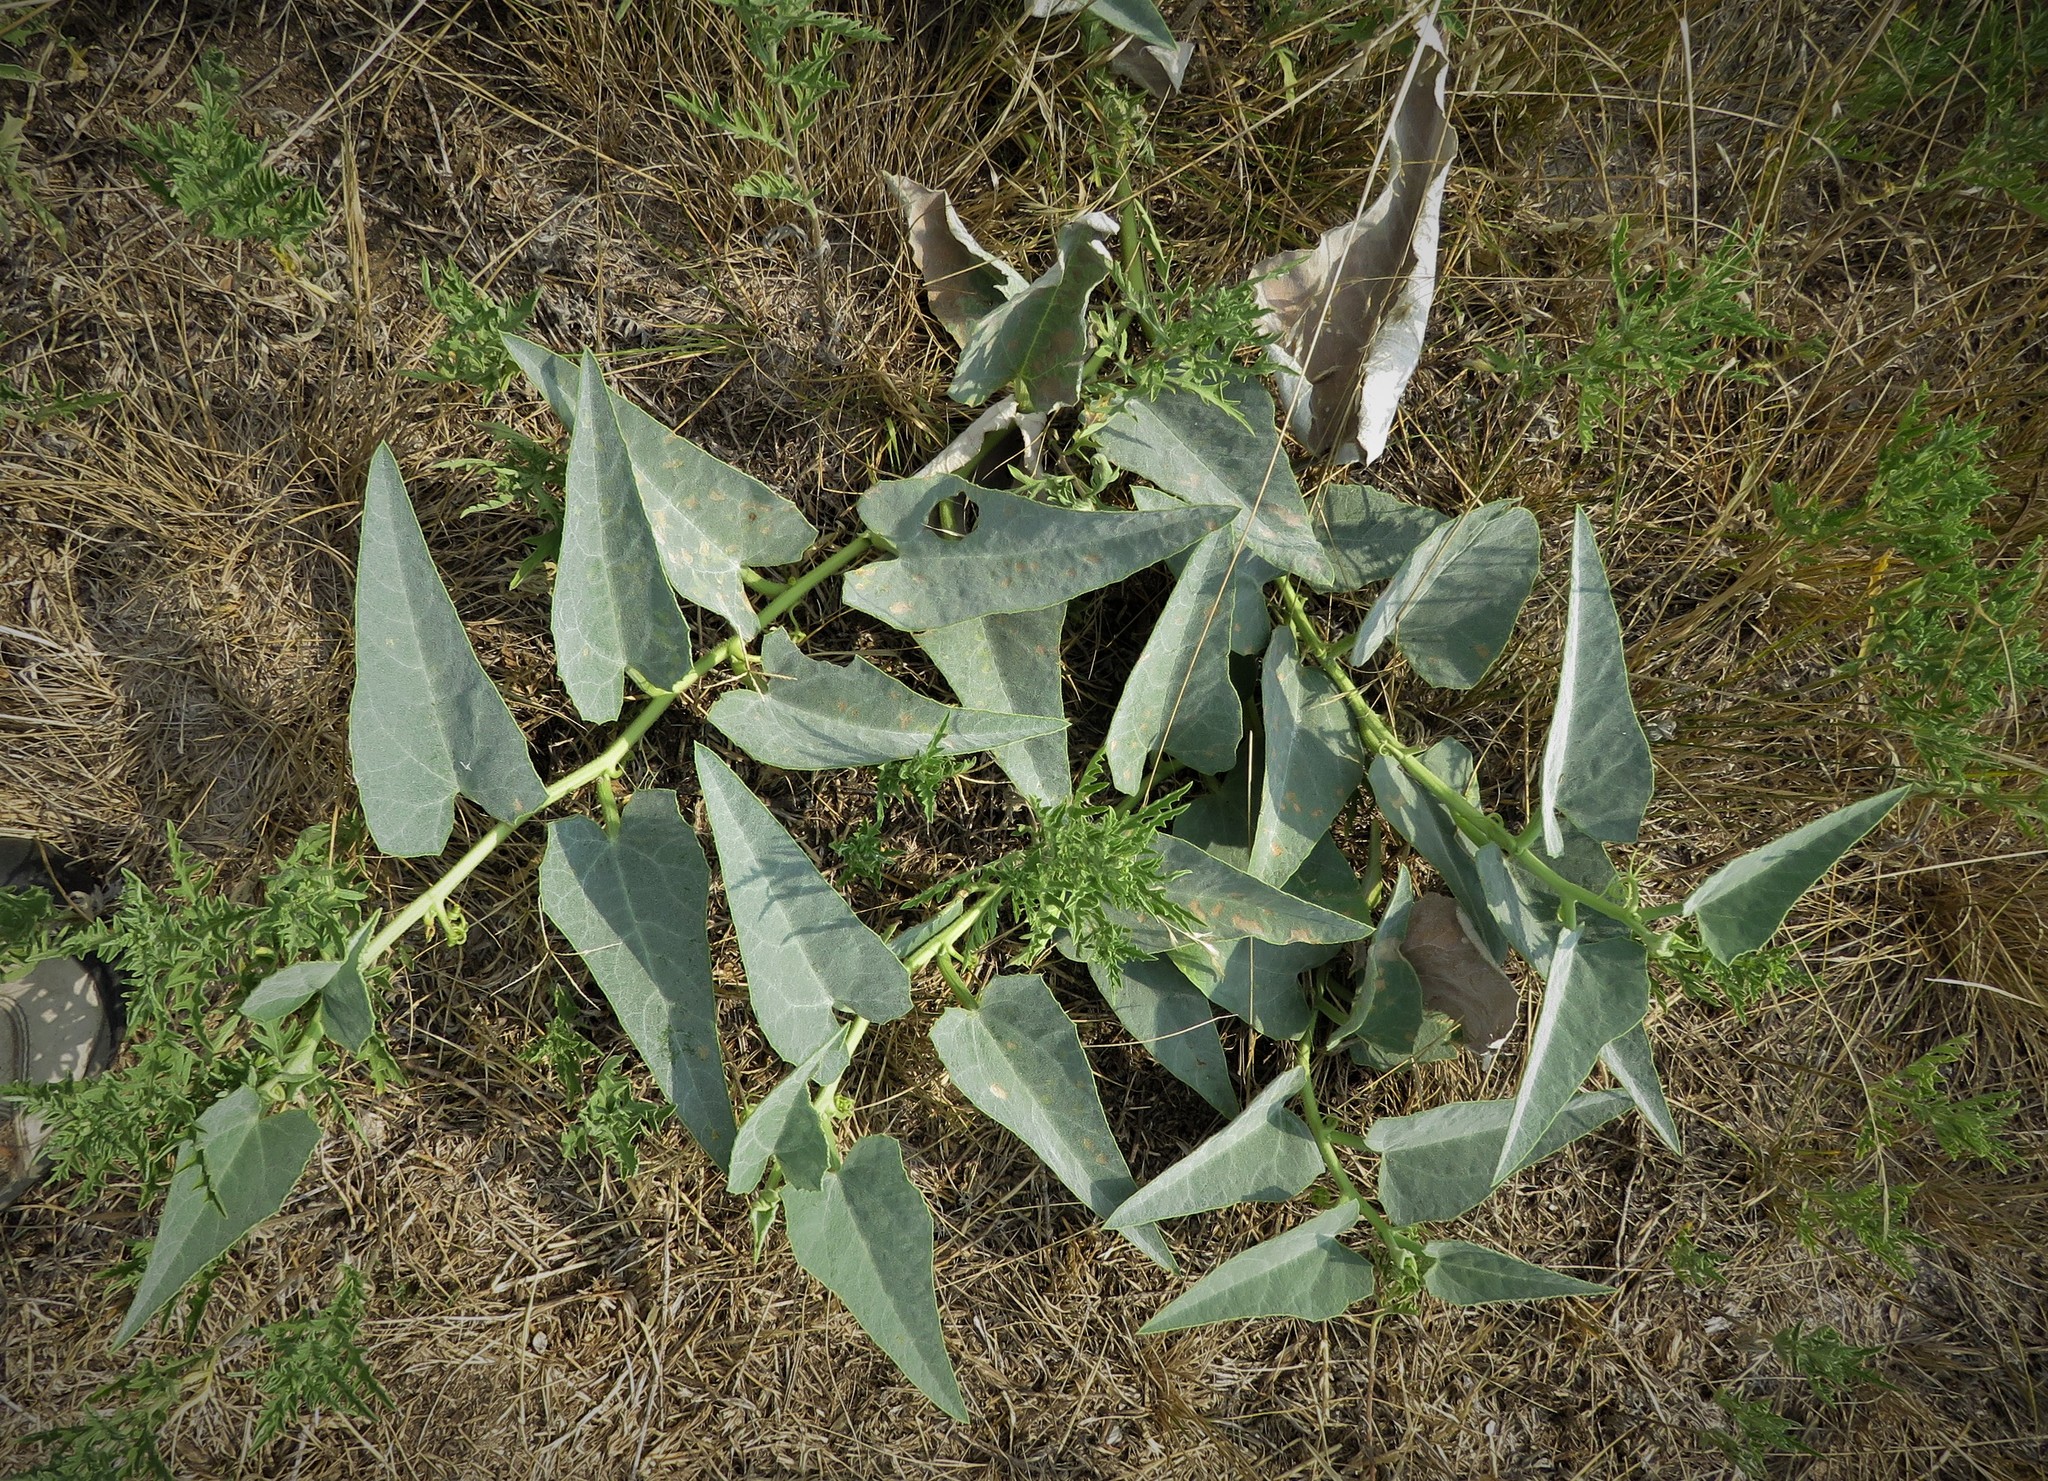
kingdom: Plantae
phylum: Tracheophyta
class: Magnoliopsida
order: Cucurbitales
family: Cucurbitaceae
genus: Cucurbita
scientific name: Cucurbita foetidissima
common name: Buffalo gourd
